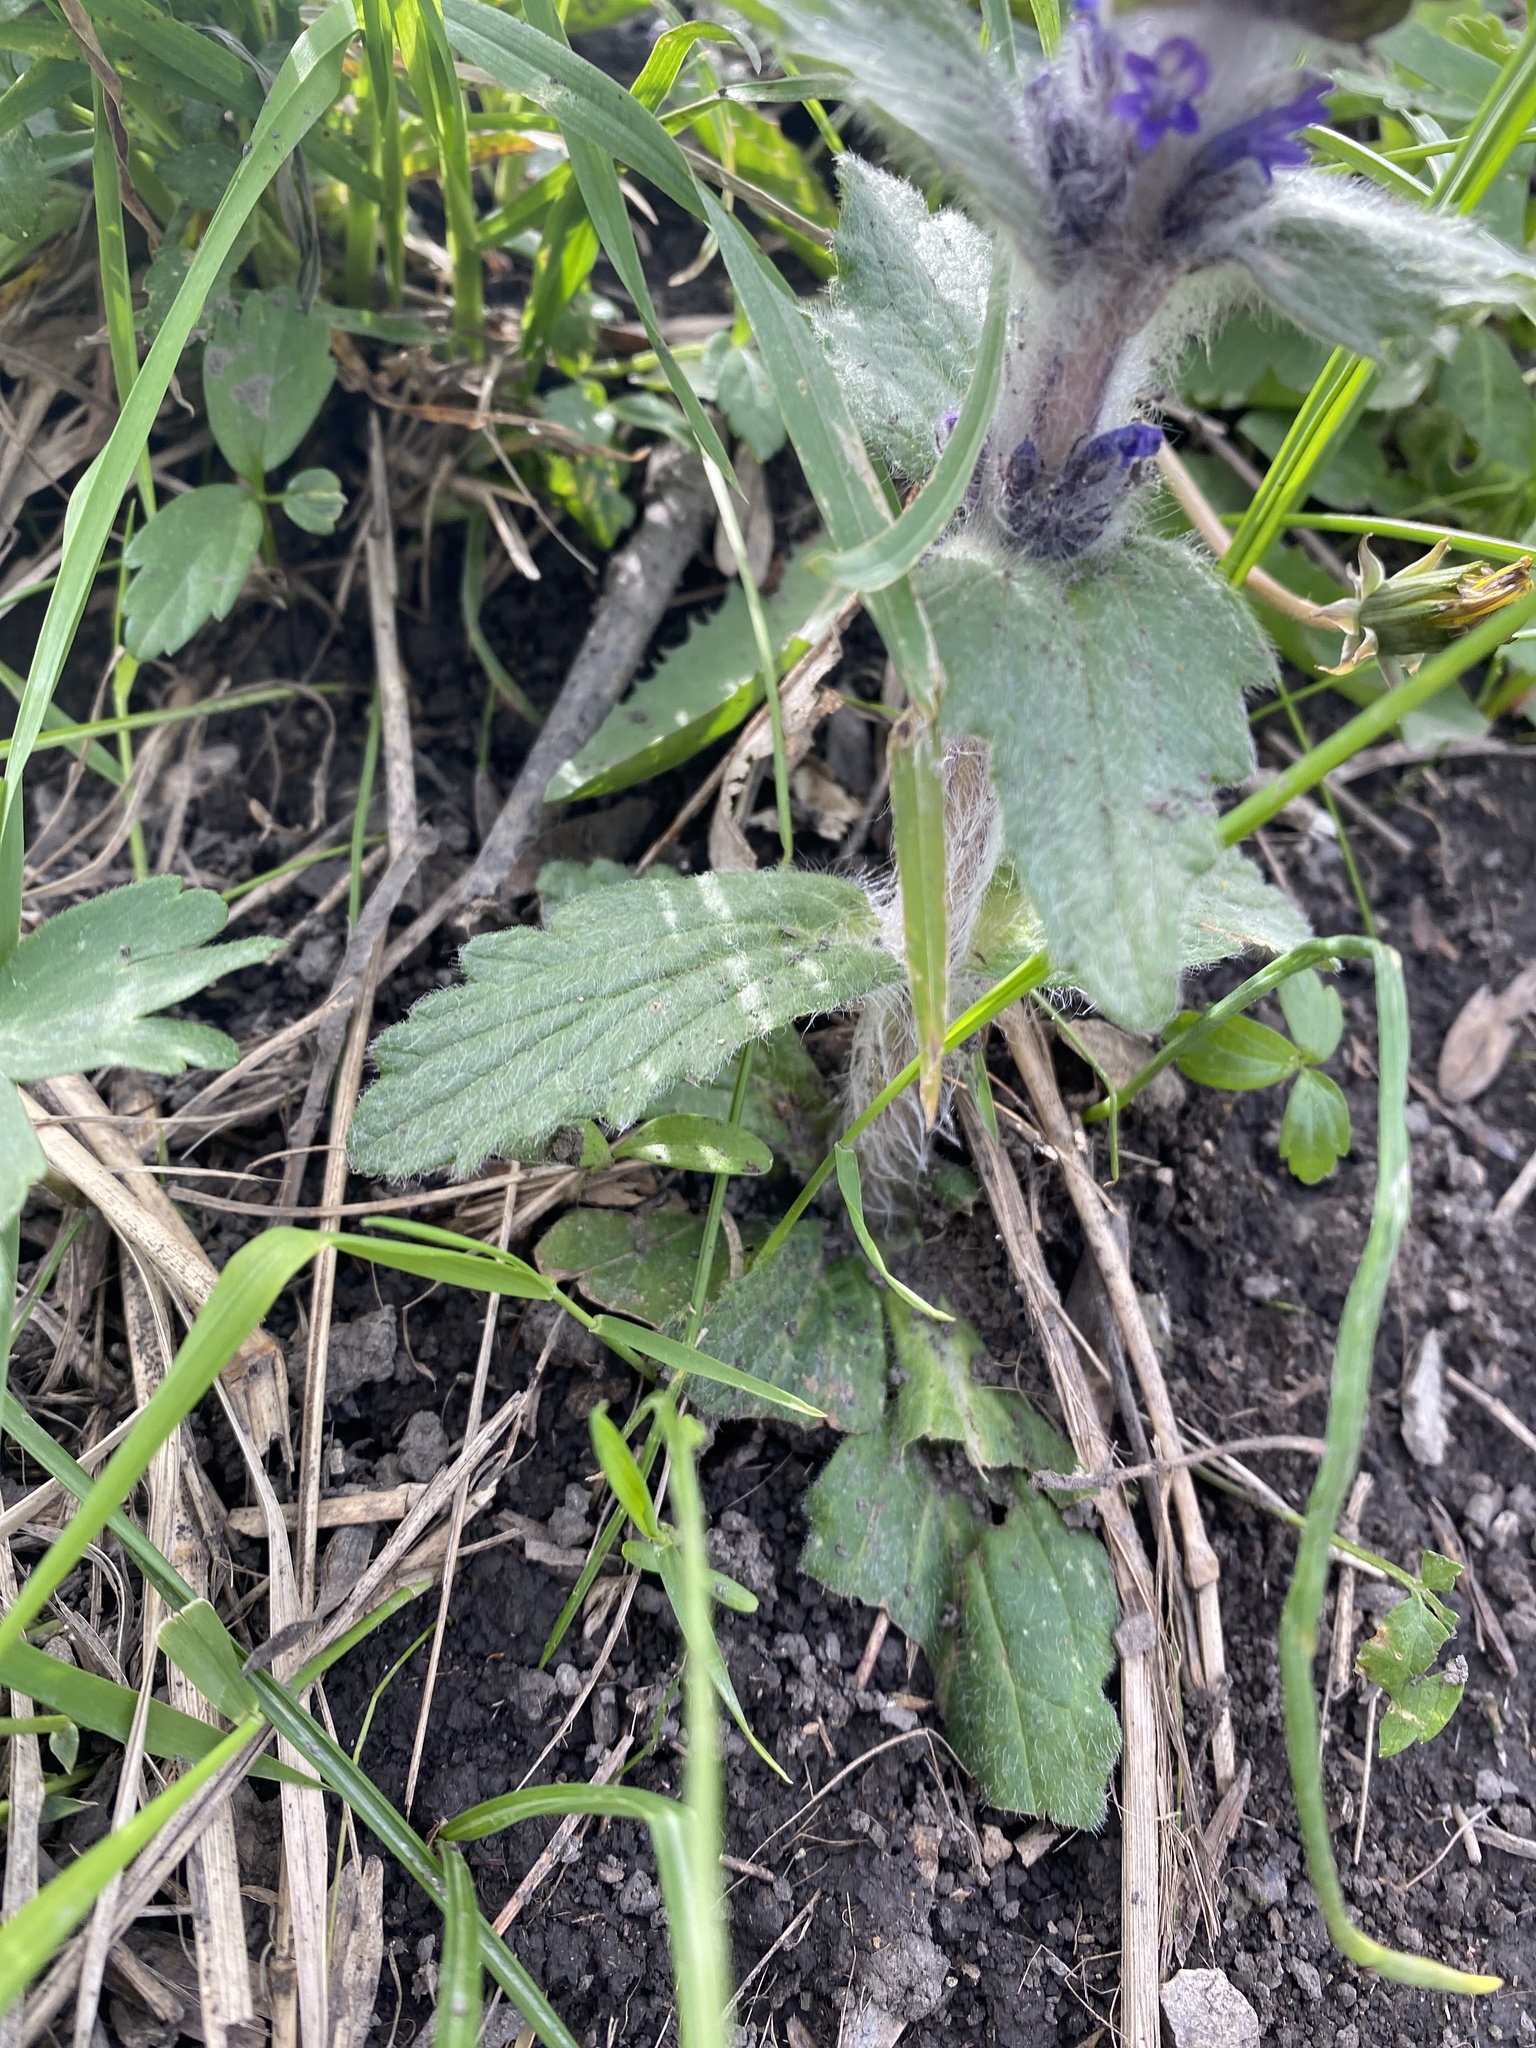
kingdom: Plantae
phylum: Tracheophyta
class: Magnoliopsida
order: Lamiales
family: Lamiaceae
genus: Ajuga
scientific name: Ajuga orientalis
